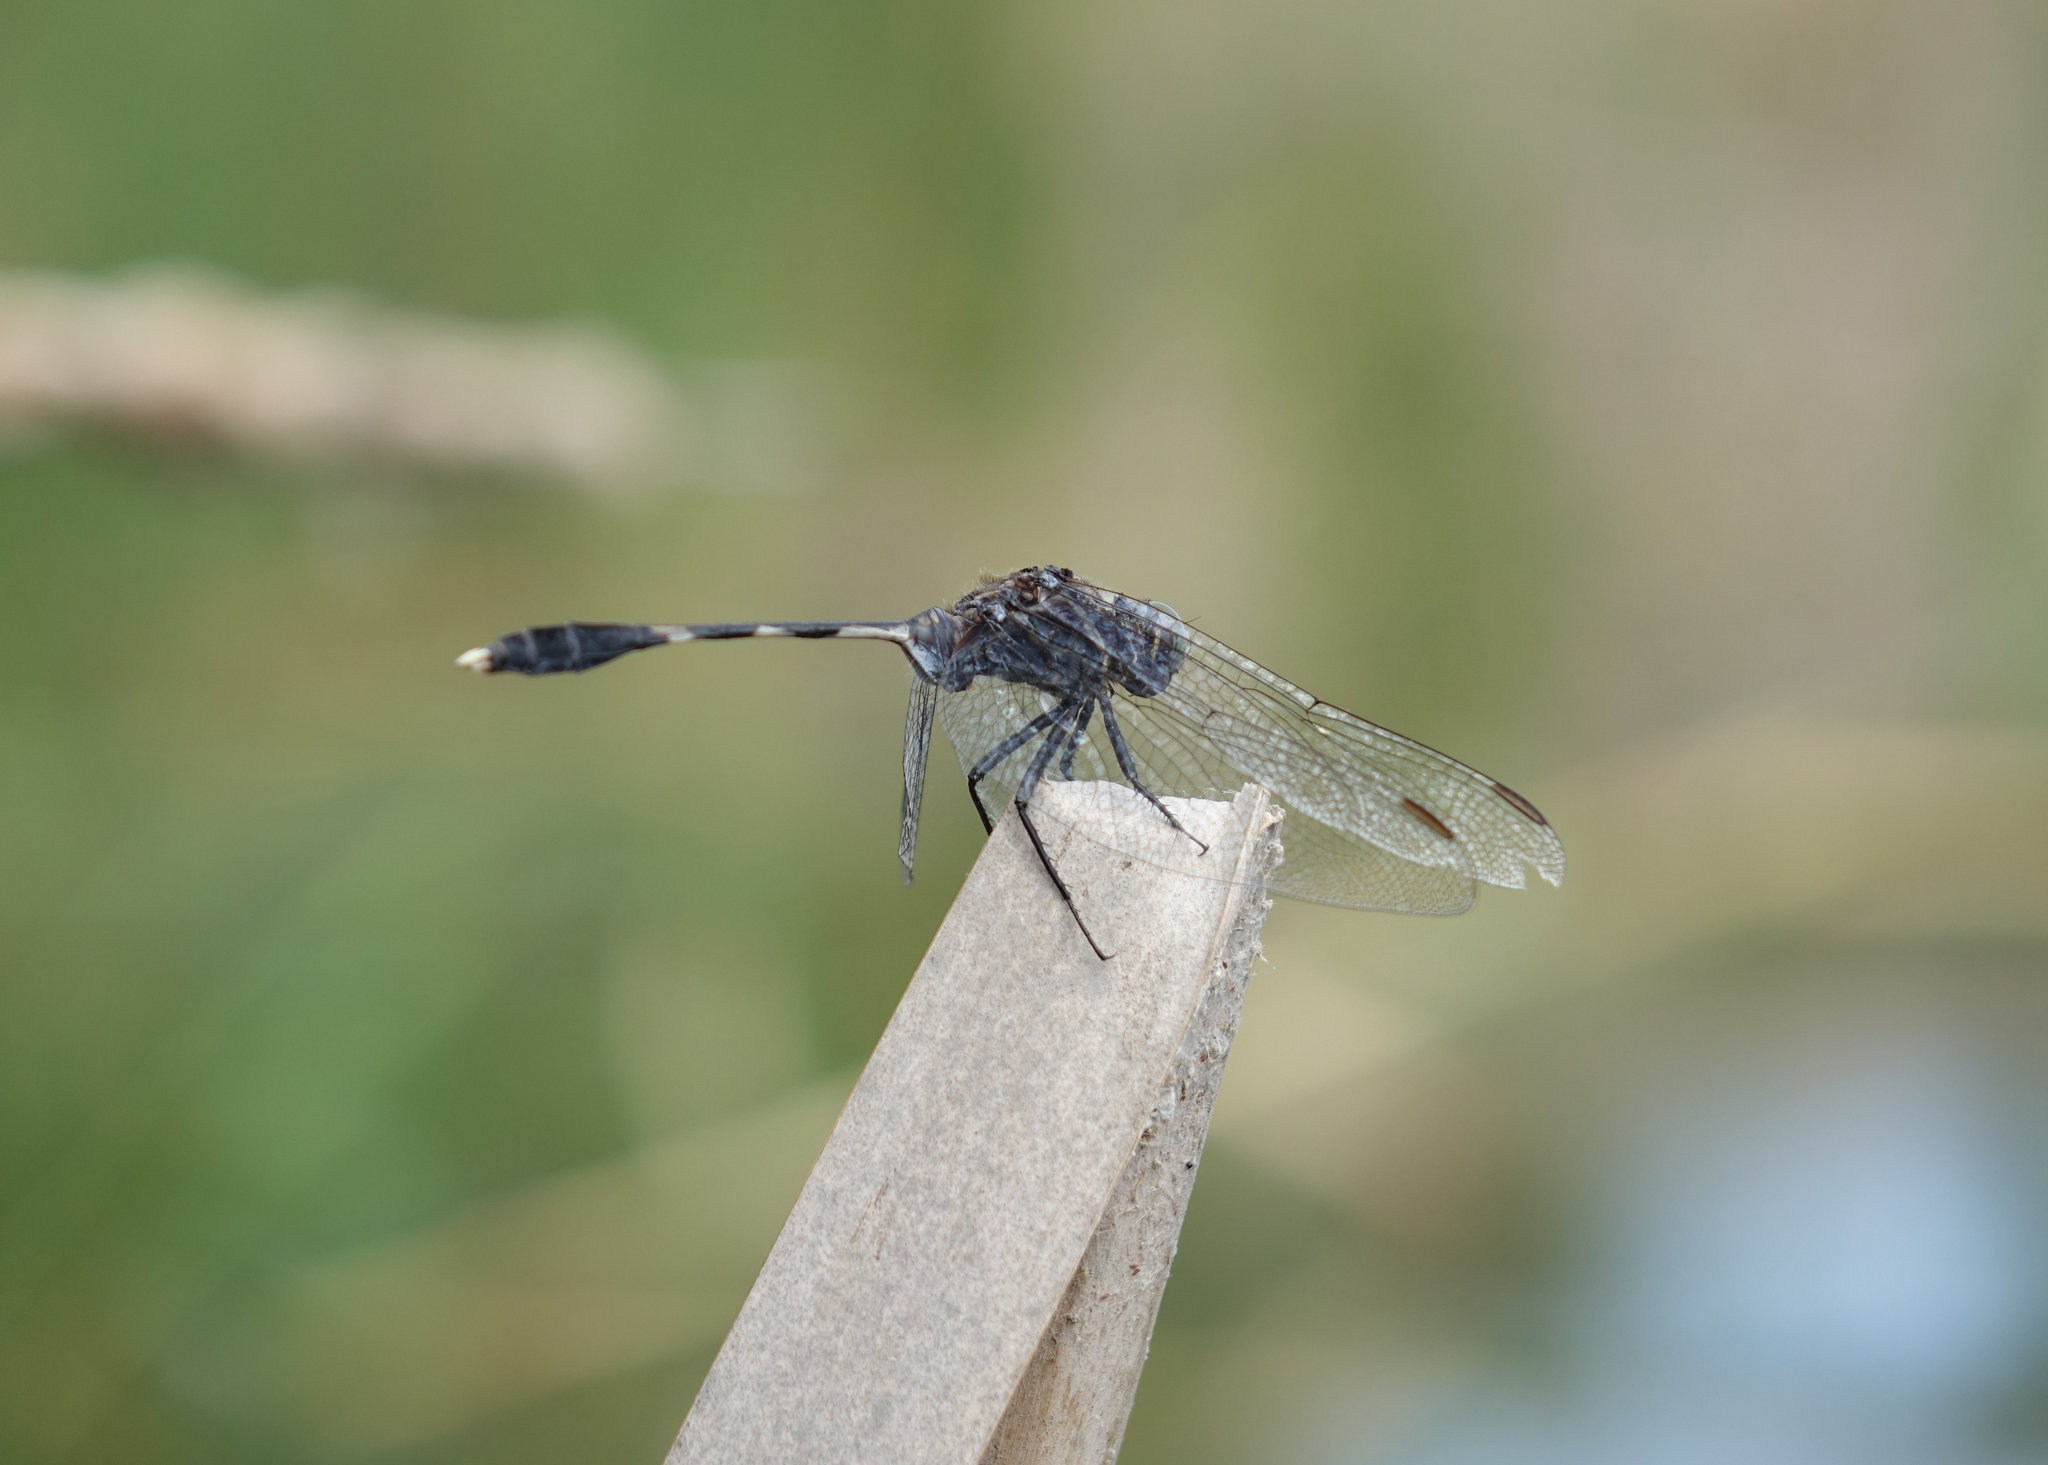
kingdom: Animalia
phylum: Arthropoda
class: Insecta
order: Odonata
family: Libellulidae
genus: Orthetrum
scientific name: Orthetrum sabina
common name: Slender skimmer
